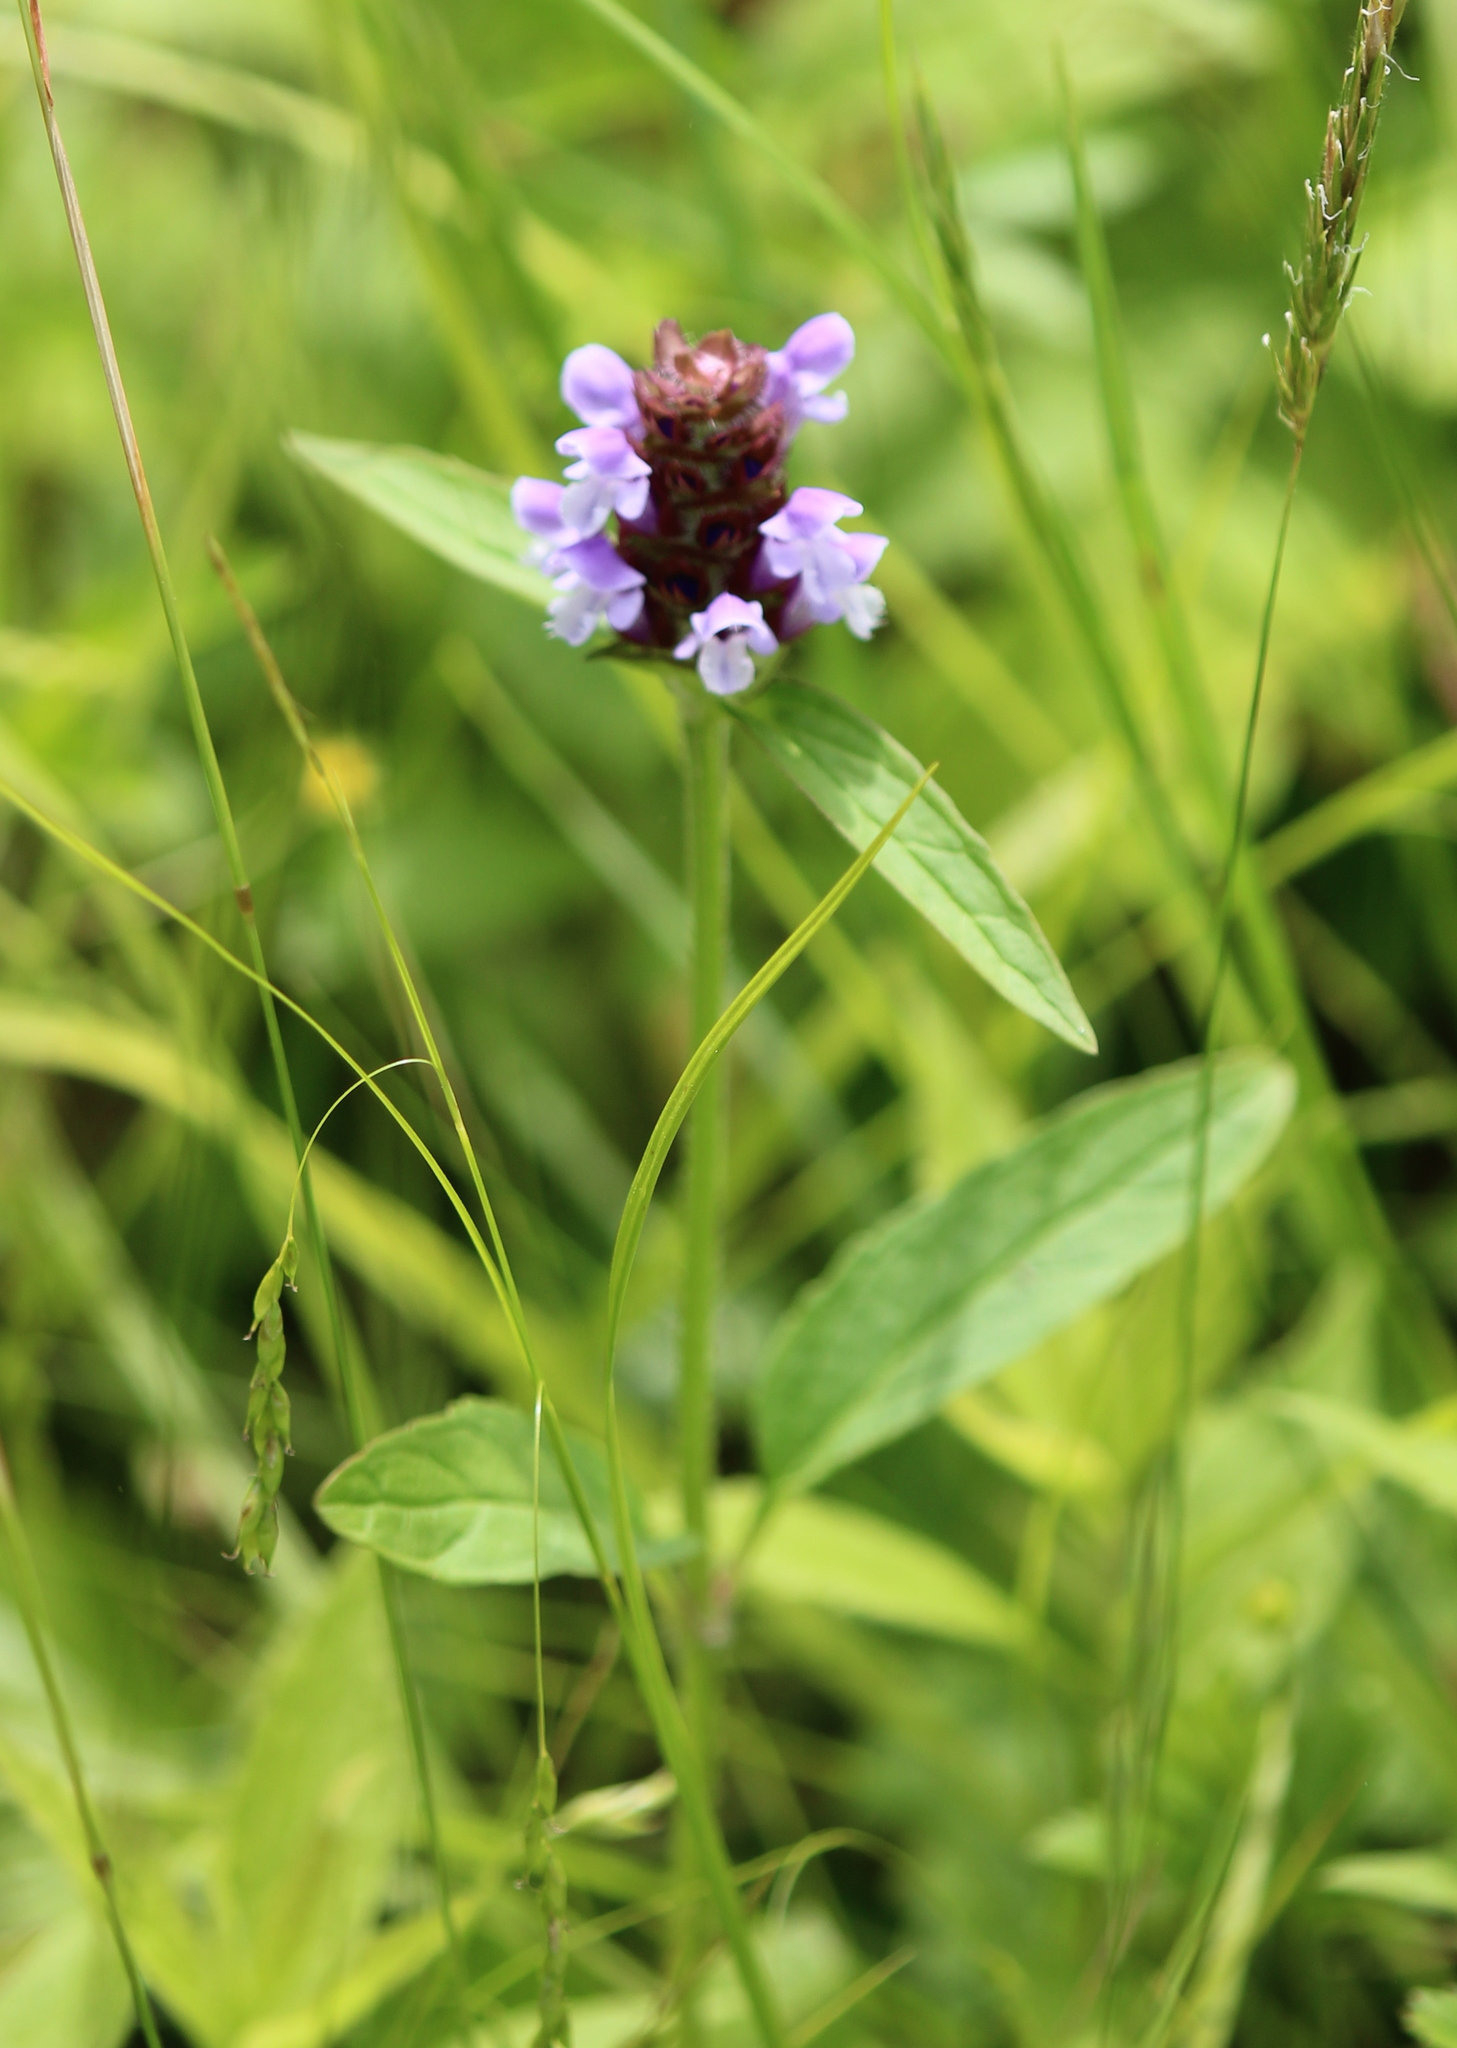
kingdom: Plantae
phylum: Tracheophyta
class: Magnoliopsida
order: Lamiales
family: Lamiaceae
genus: Prunella
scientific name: Prunella vulgaris
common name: Heal-all
